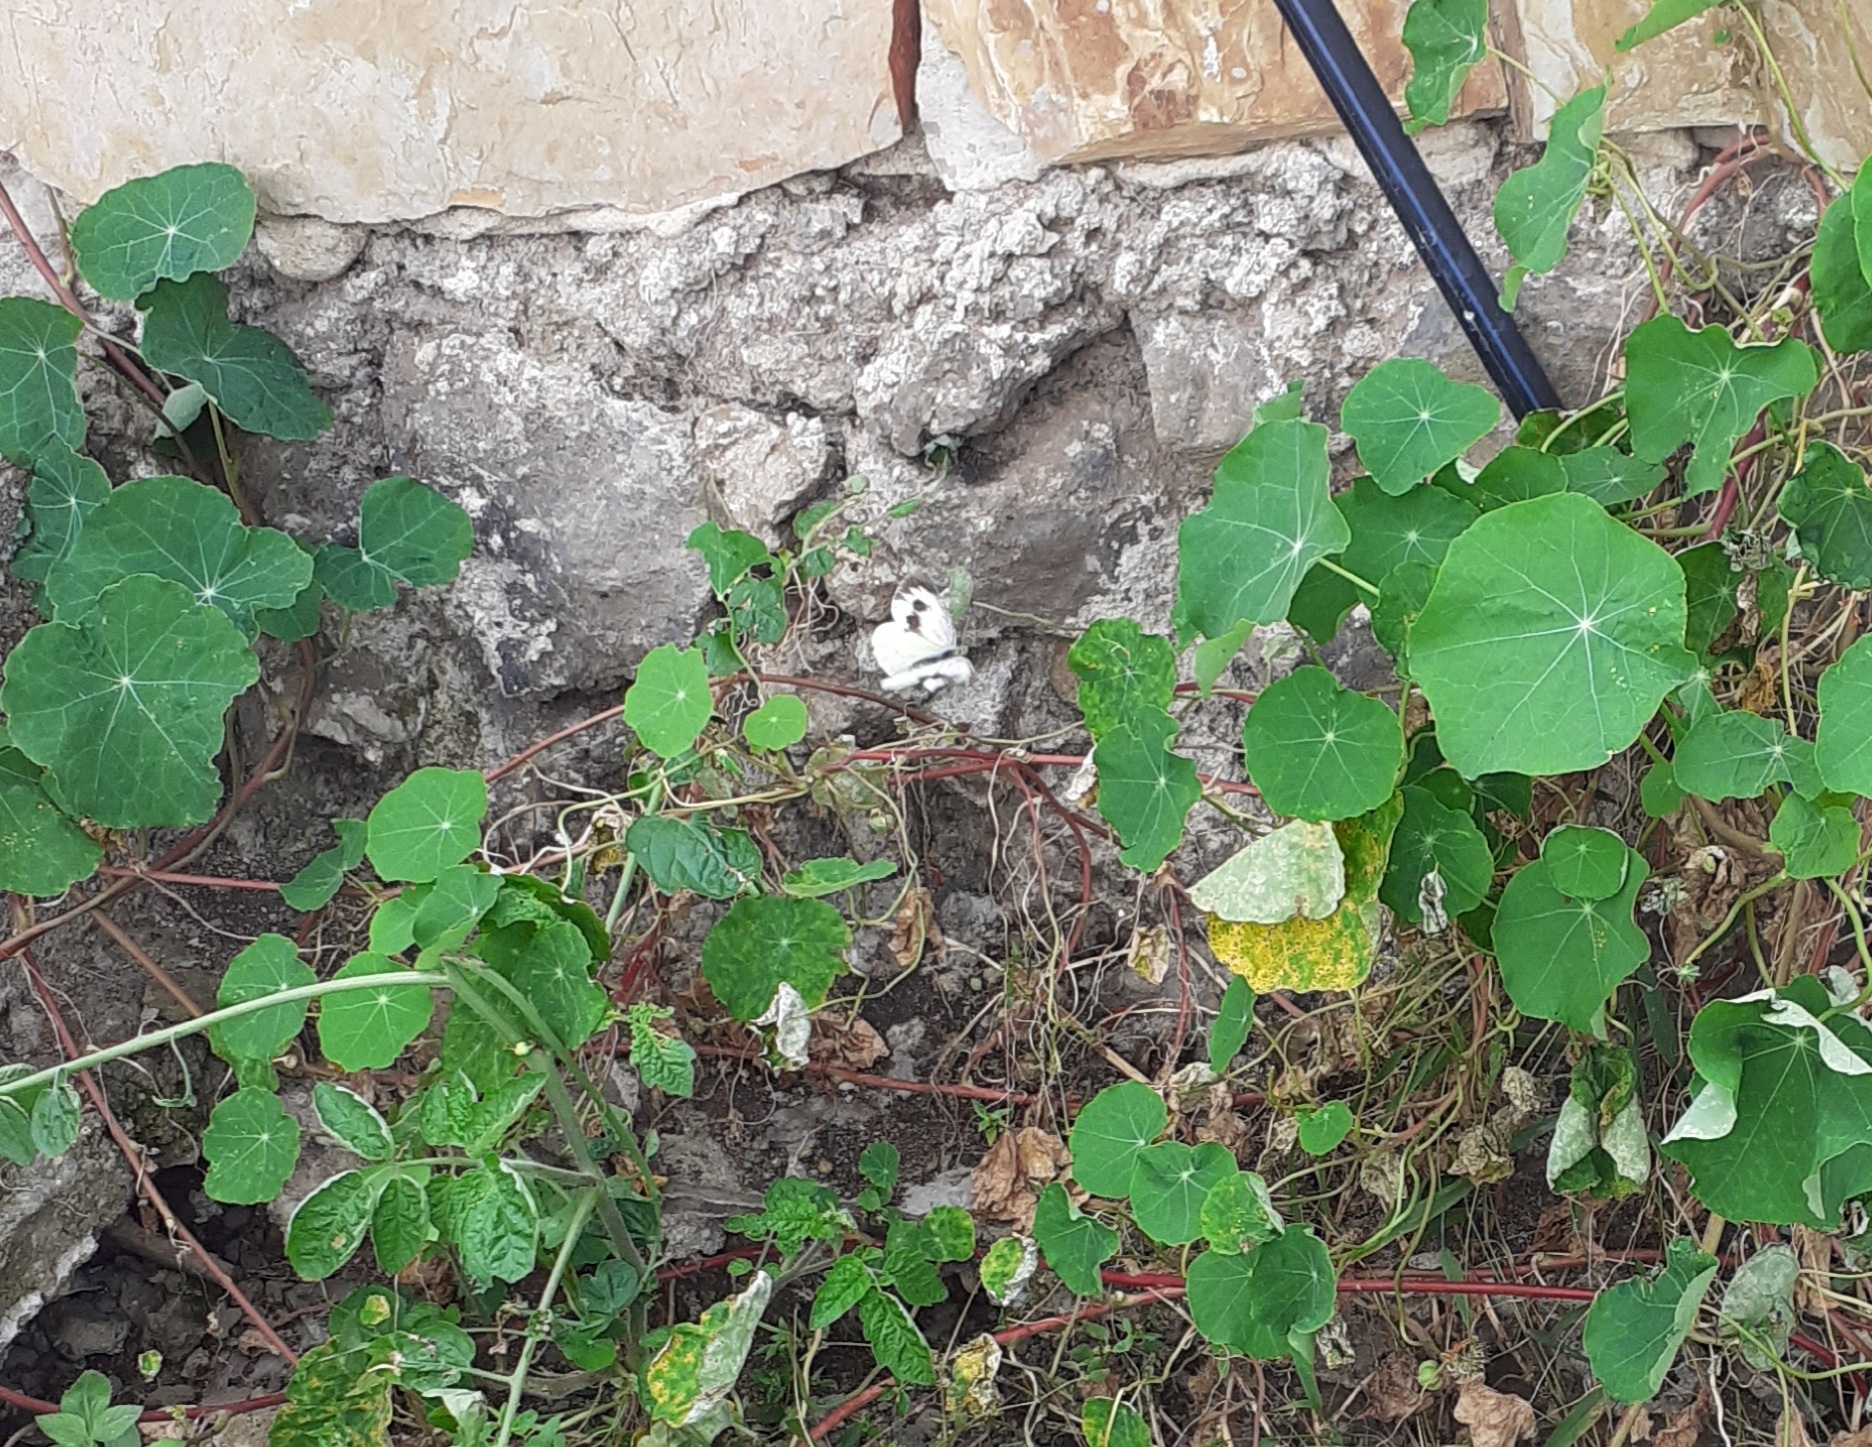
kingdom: Animalia
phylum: Arthropoda
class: Insecta
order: Lepidoptera
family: Pieridae
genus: Pieris
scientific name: Pieris cheiranthi
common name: Canary islands large white
